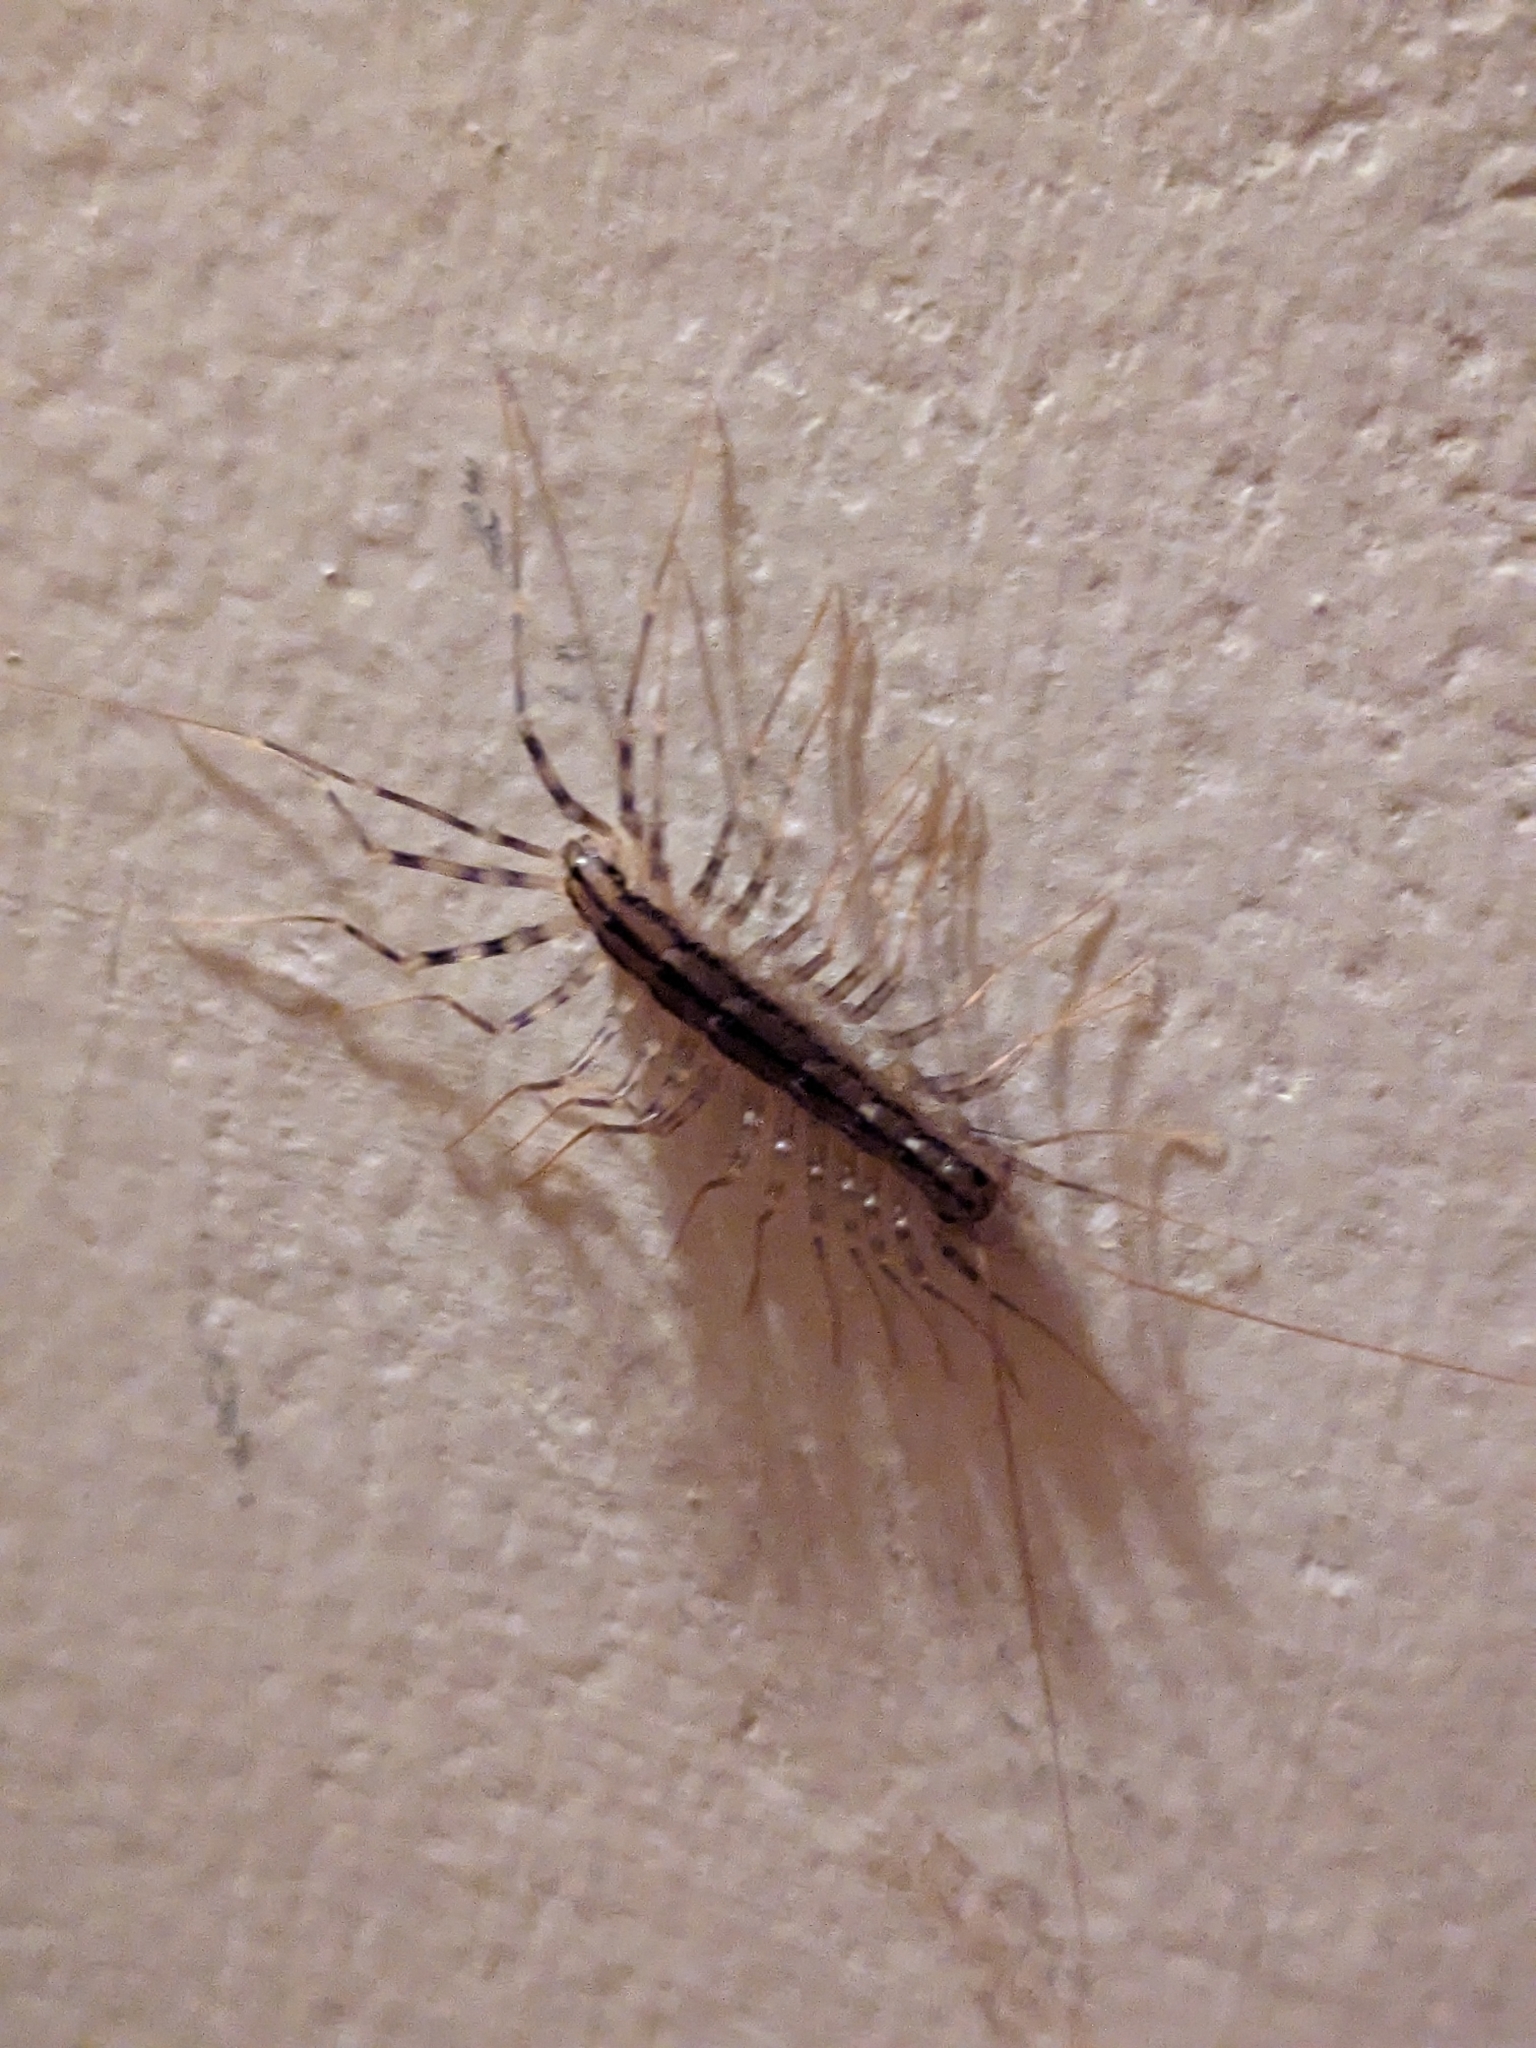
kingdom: Animalia
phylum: Arthropoda
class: Chilopoda
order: Scutigeromorpha
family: Scutigeridae
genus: Scutigera
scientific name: Scutigera coleoptrata
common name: House centipede
